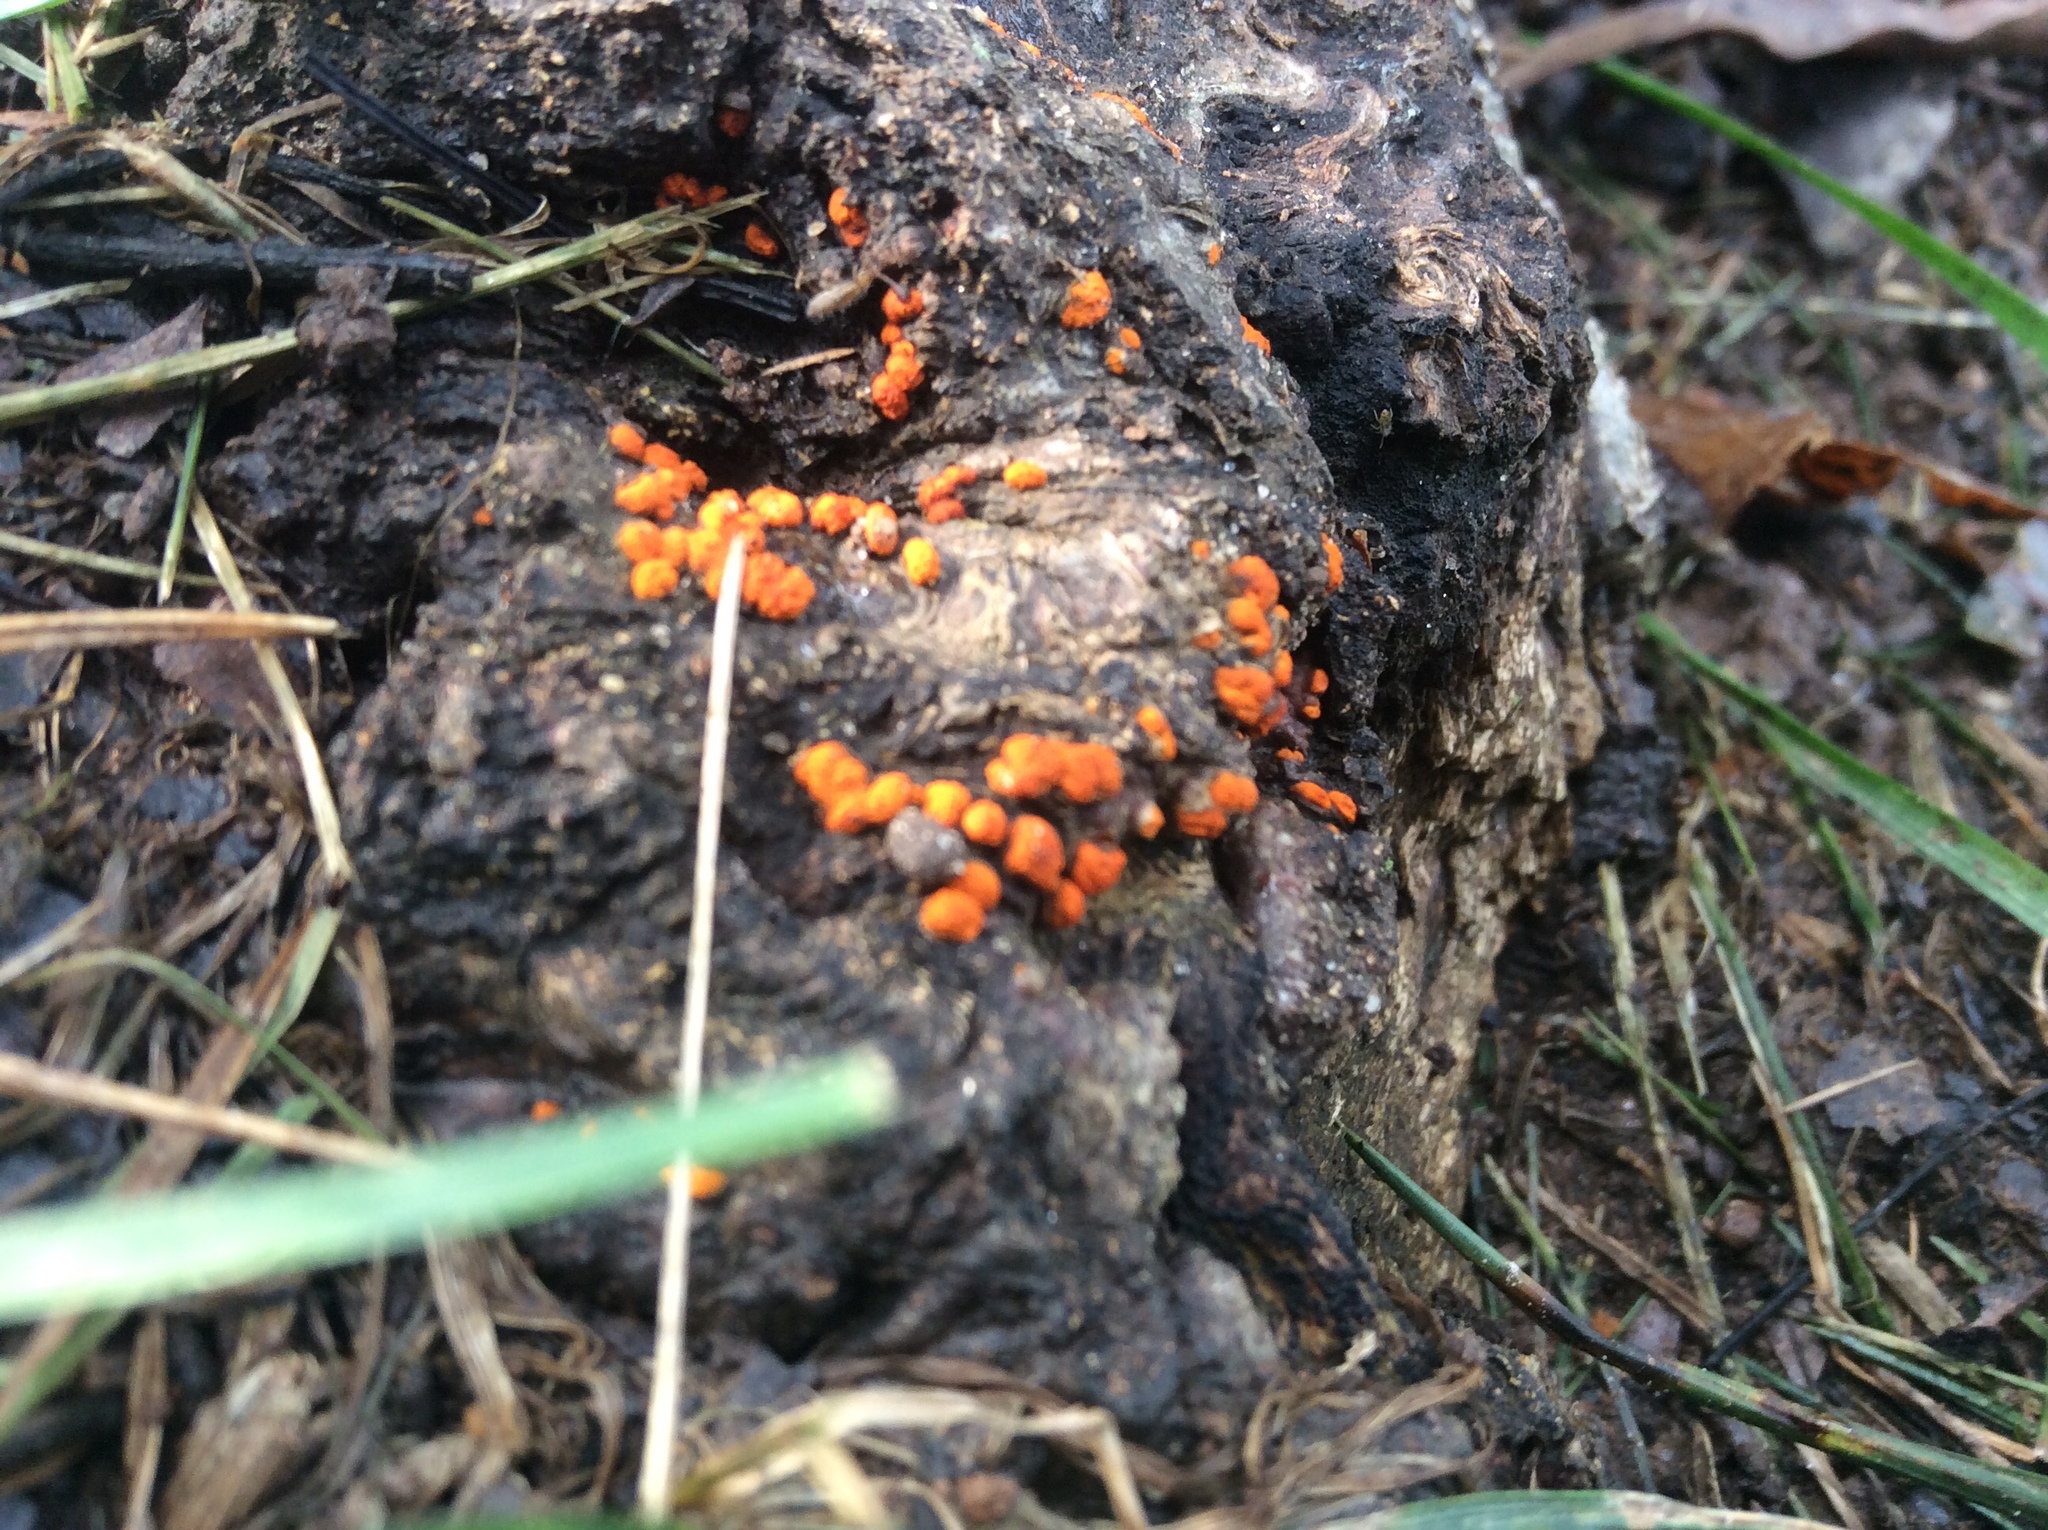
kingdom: Fungi
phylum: Ascomycota
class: Sordariomycetes
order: Diaporthales
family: Cryphonectriaceae
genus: Amphilogia
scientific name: Amphilogia gyrosa
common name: Orange hobnail canker
